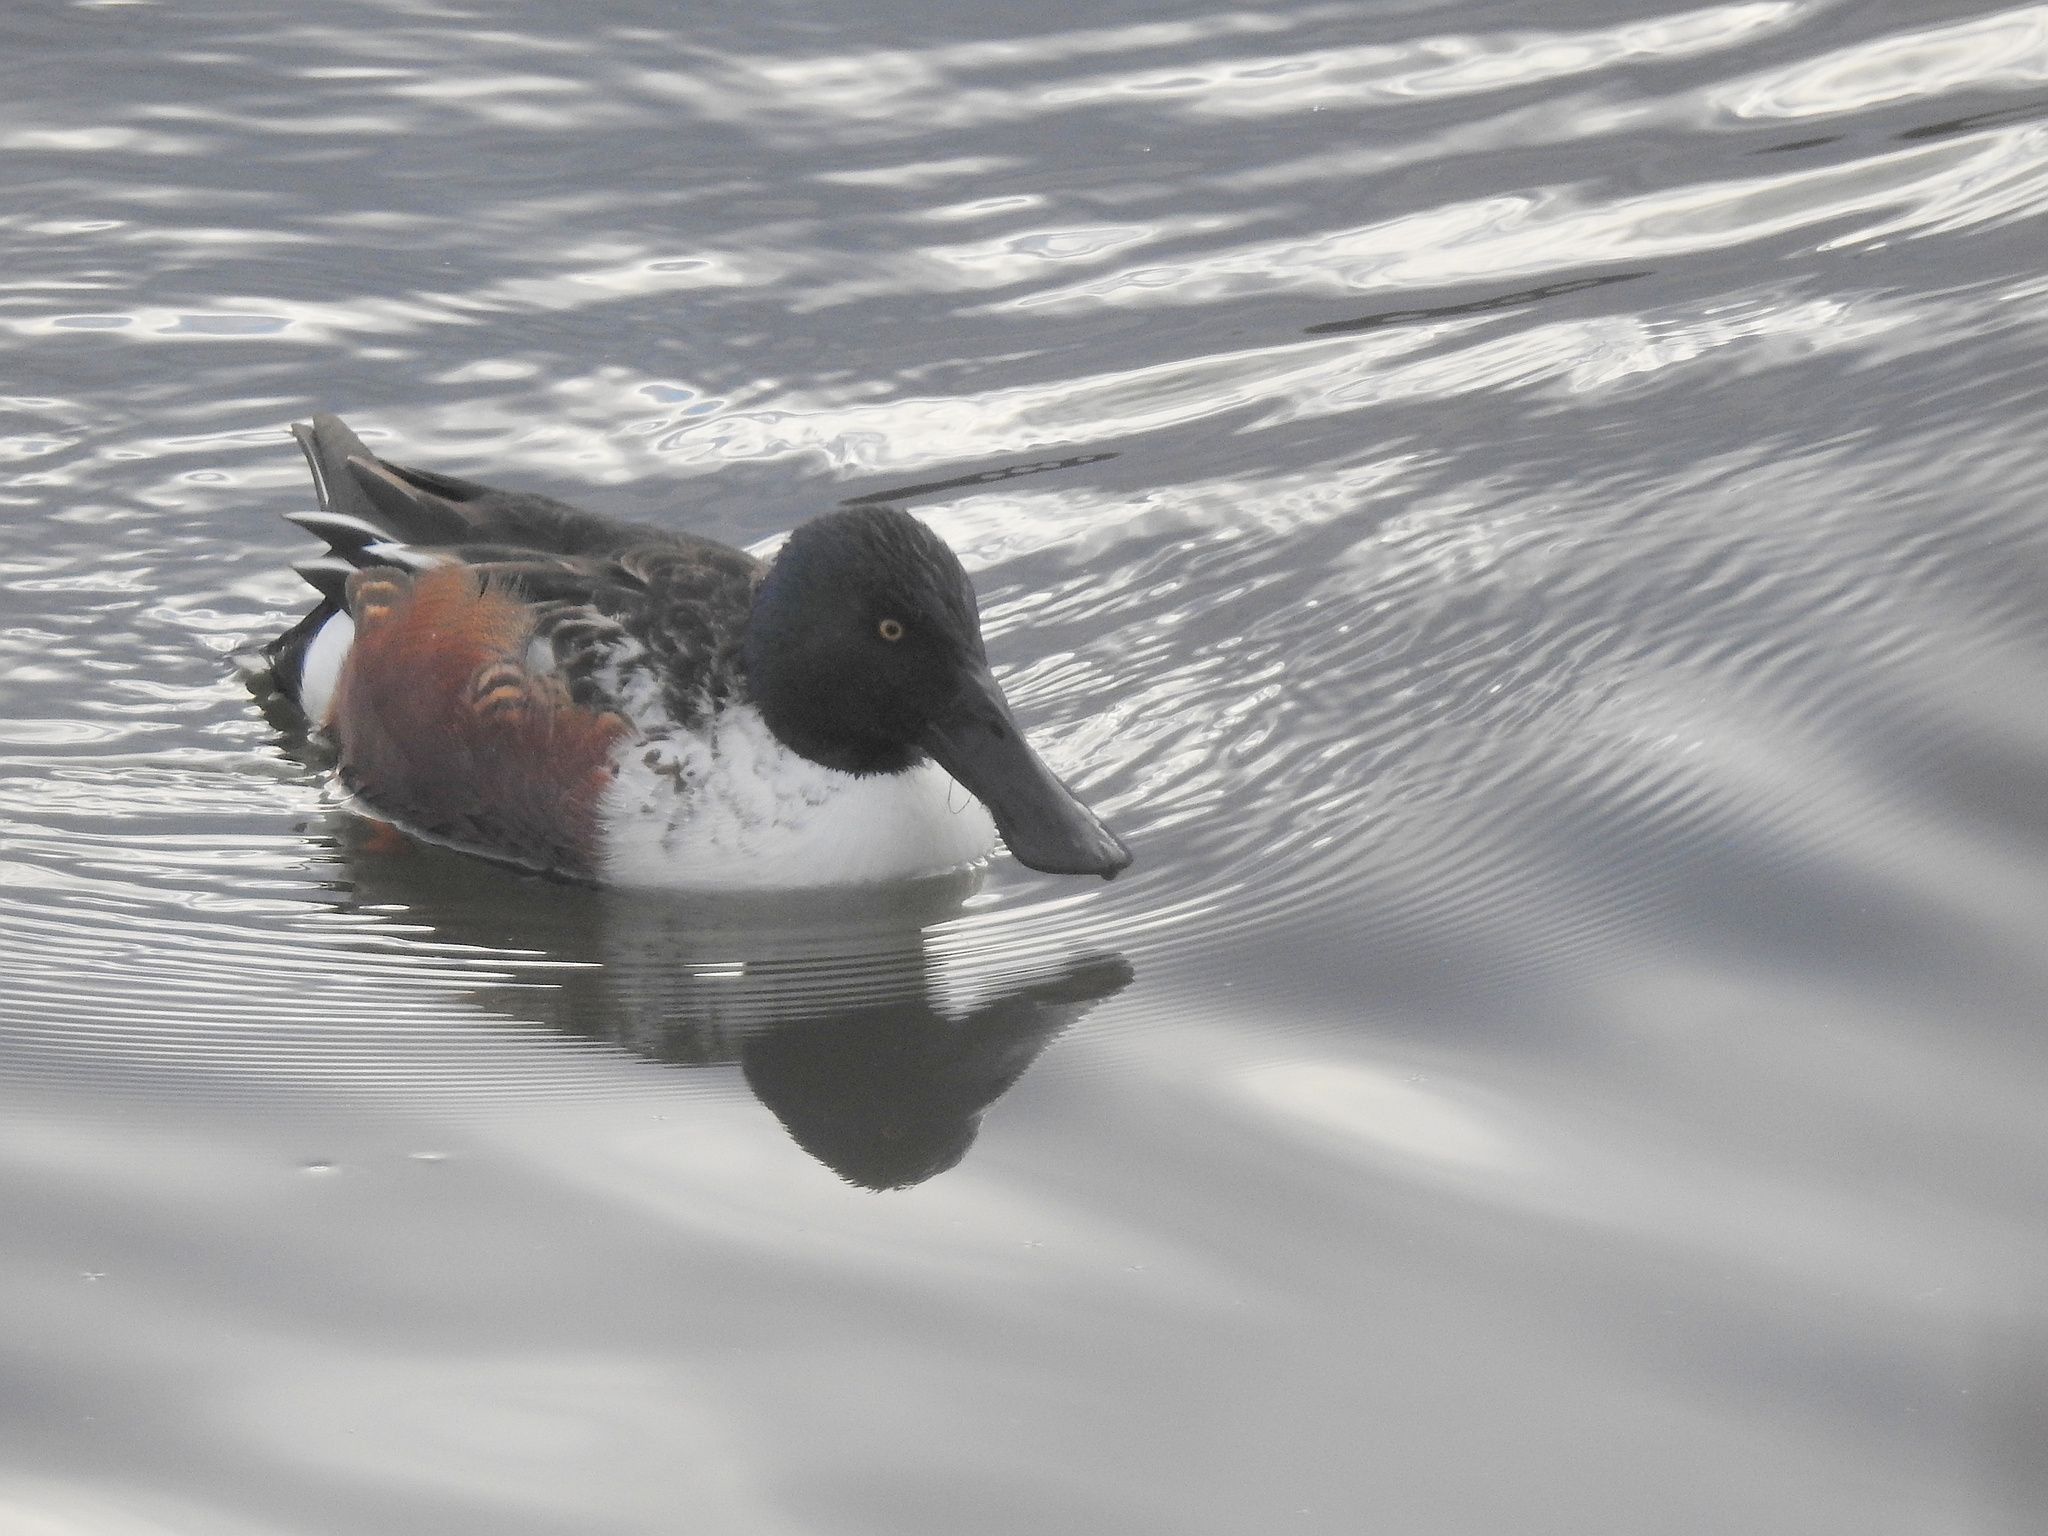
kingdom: Animalia
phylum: Chordata
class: Aves
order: Anseriformes
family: Anatidae
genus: Spatula
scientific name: Spatula clypeata
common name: Northern shoveler
